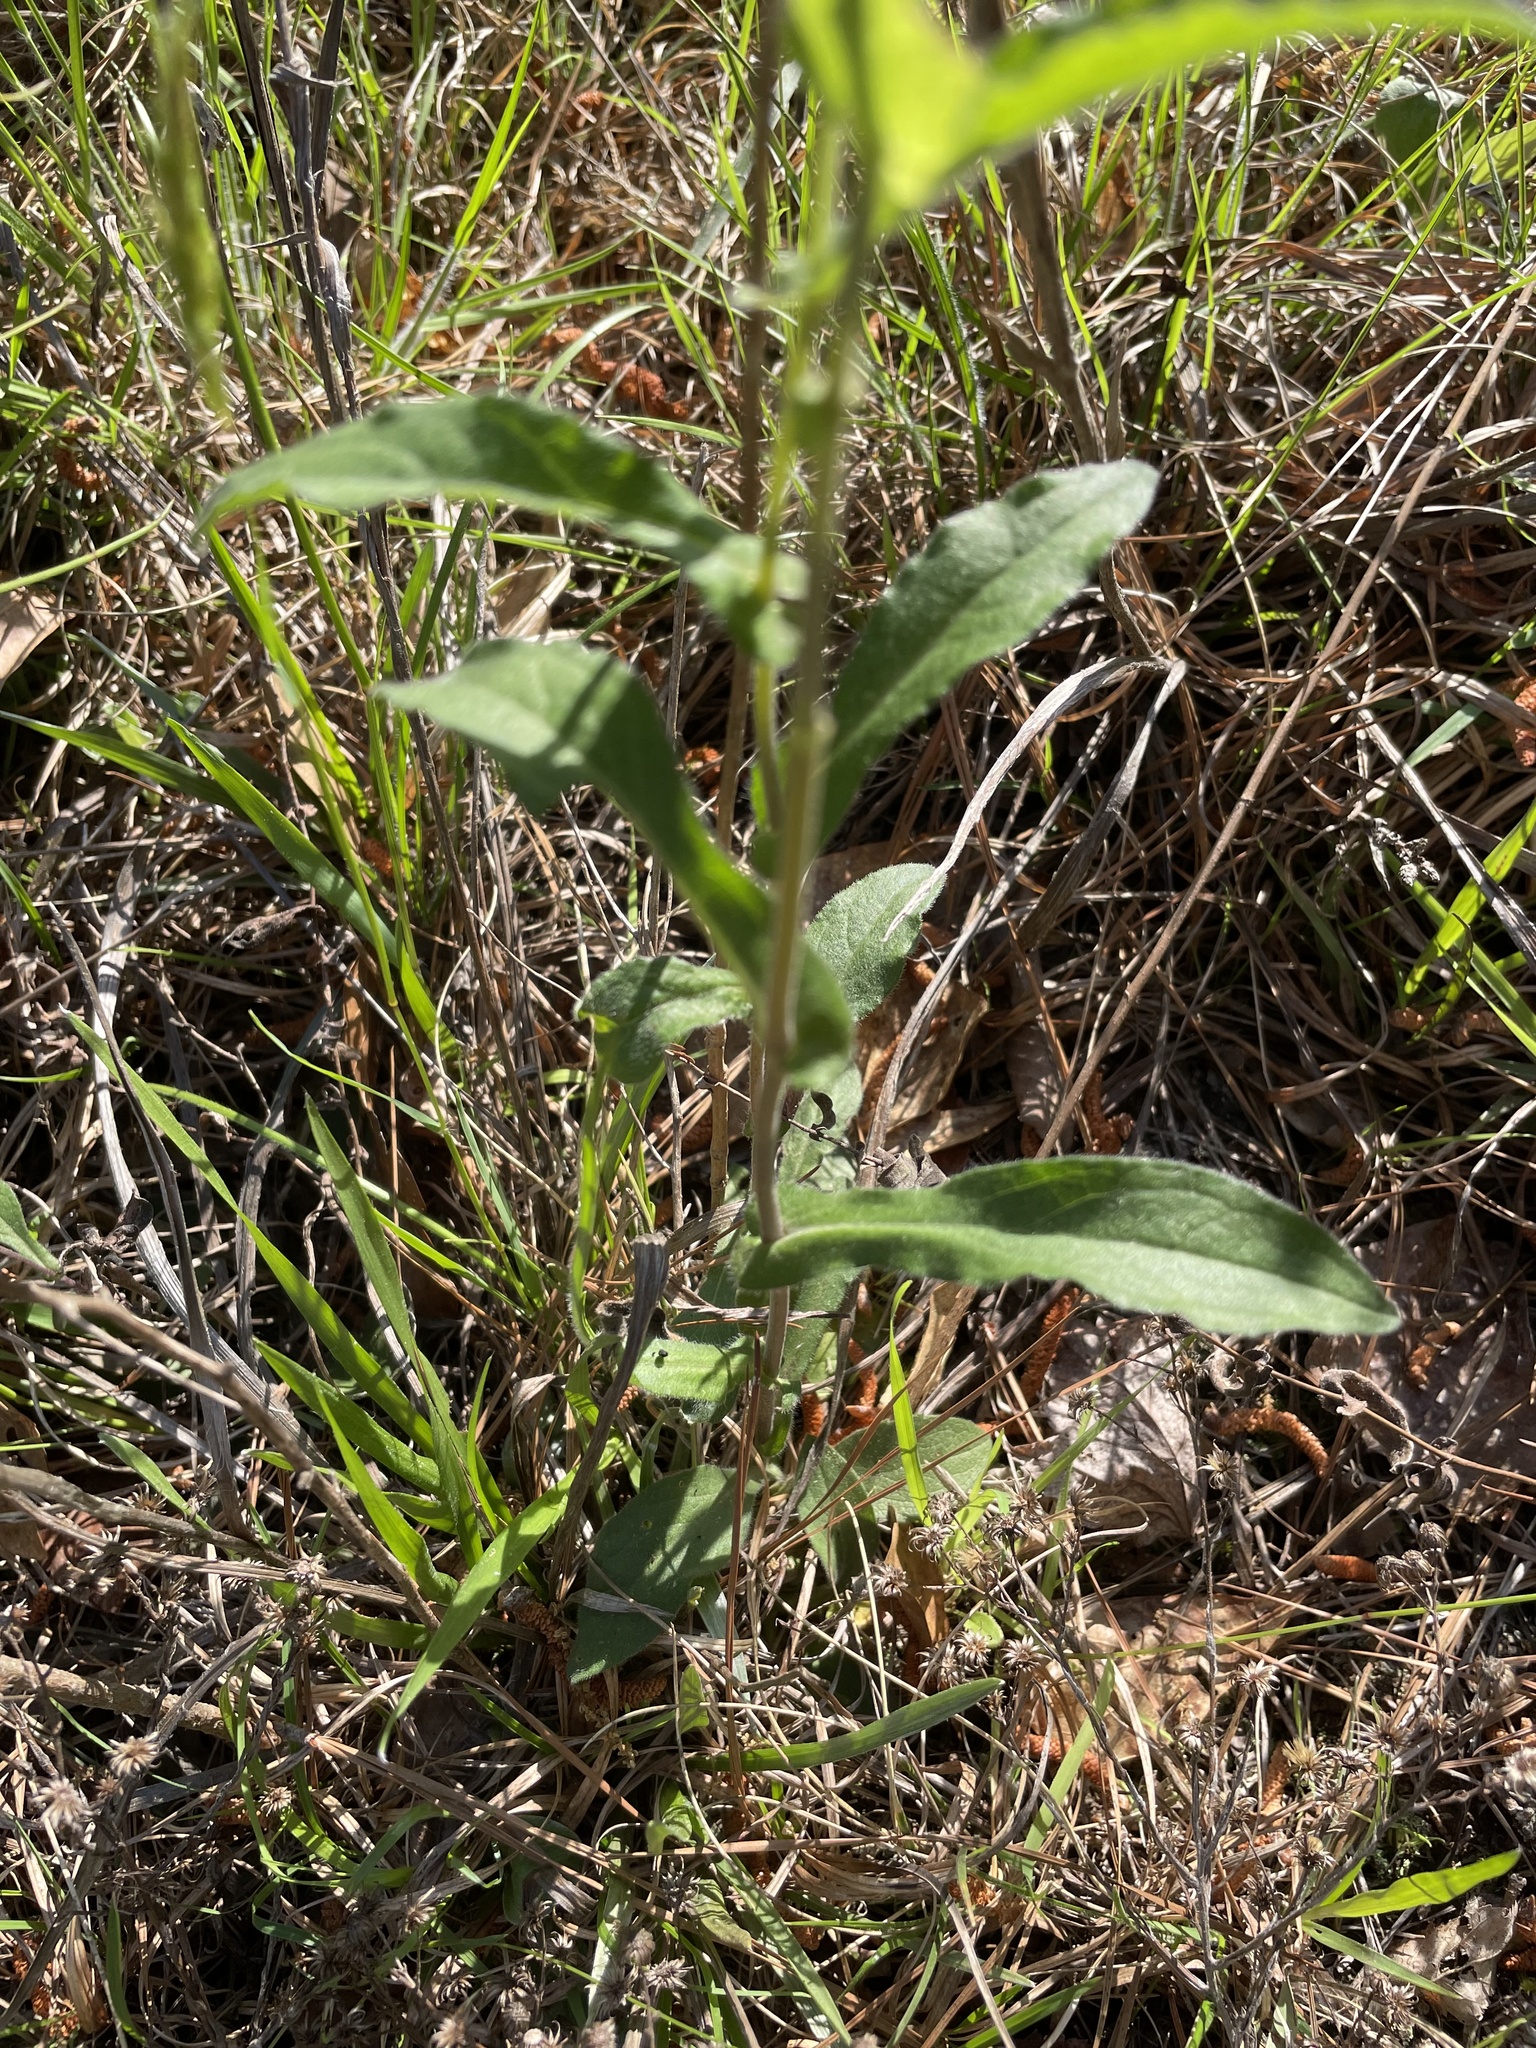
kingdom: Plantae
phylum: Tracheophyta
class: Magnoliopsida
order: Asterales
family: Asteraceae
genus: Symphyotrichum
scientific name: Symphyotrichum patens
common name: Late purple aster
